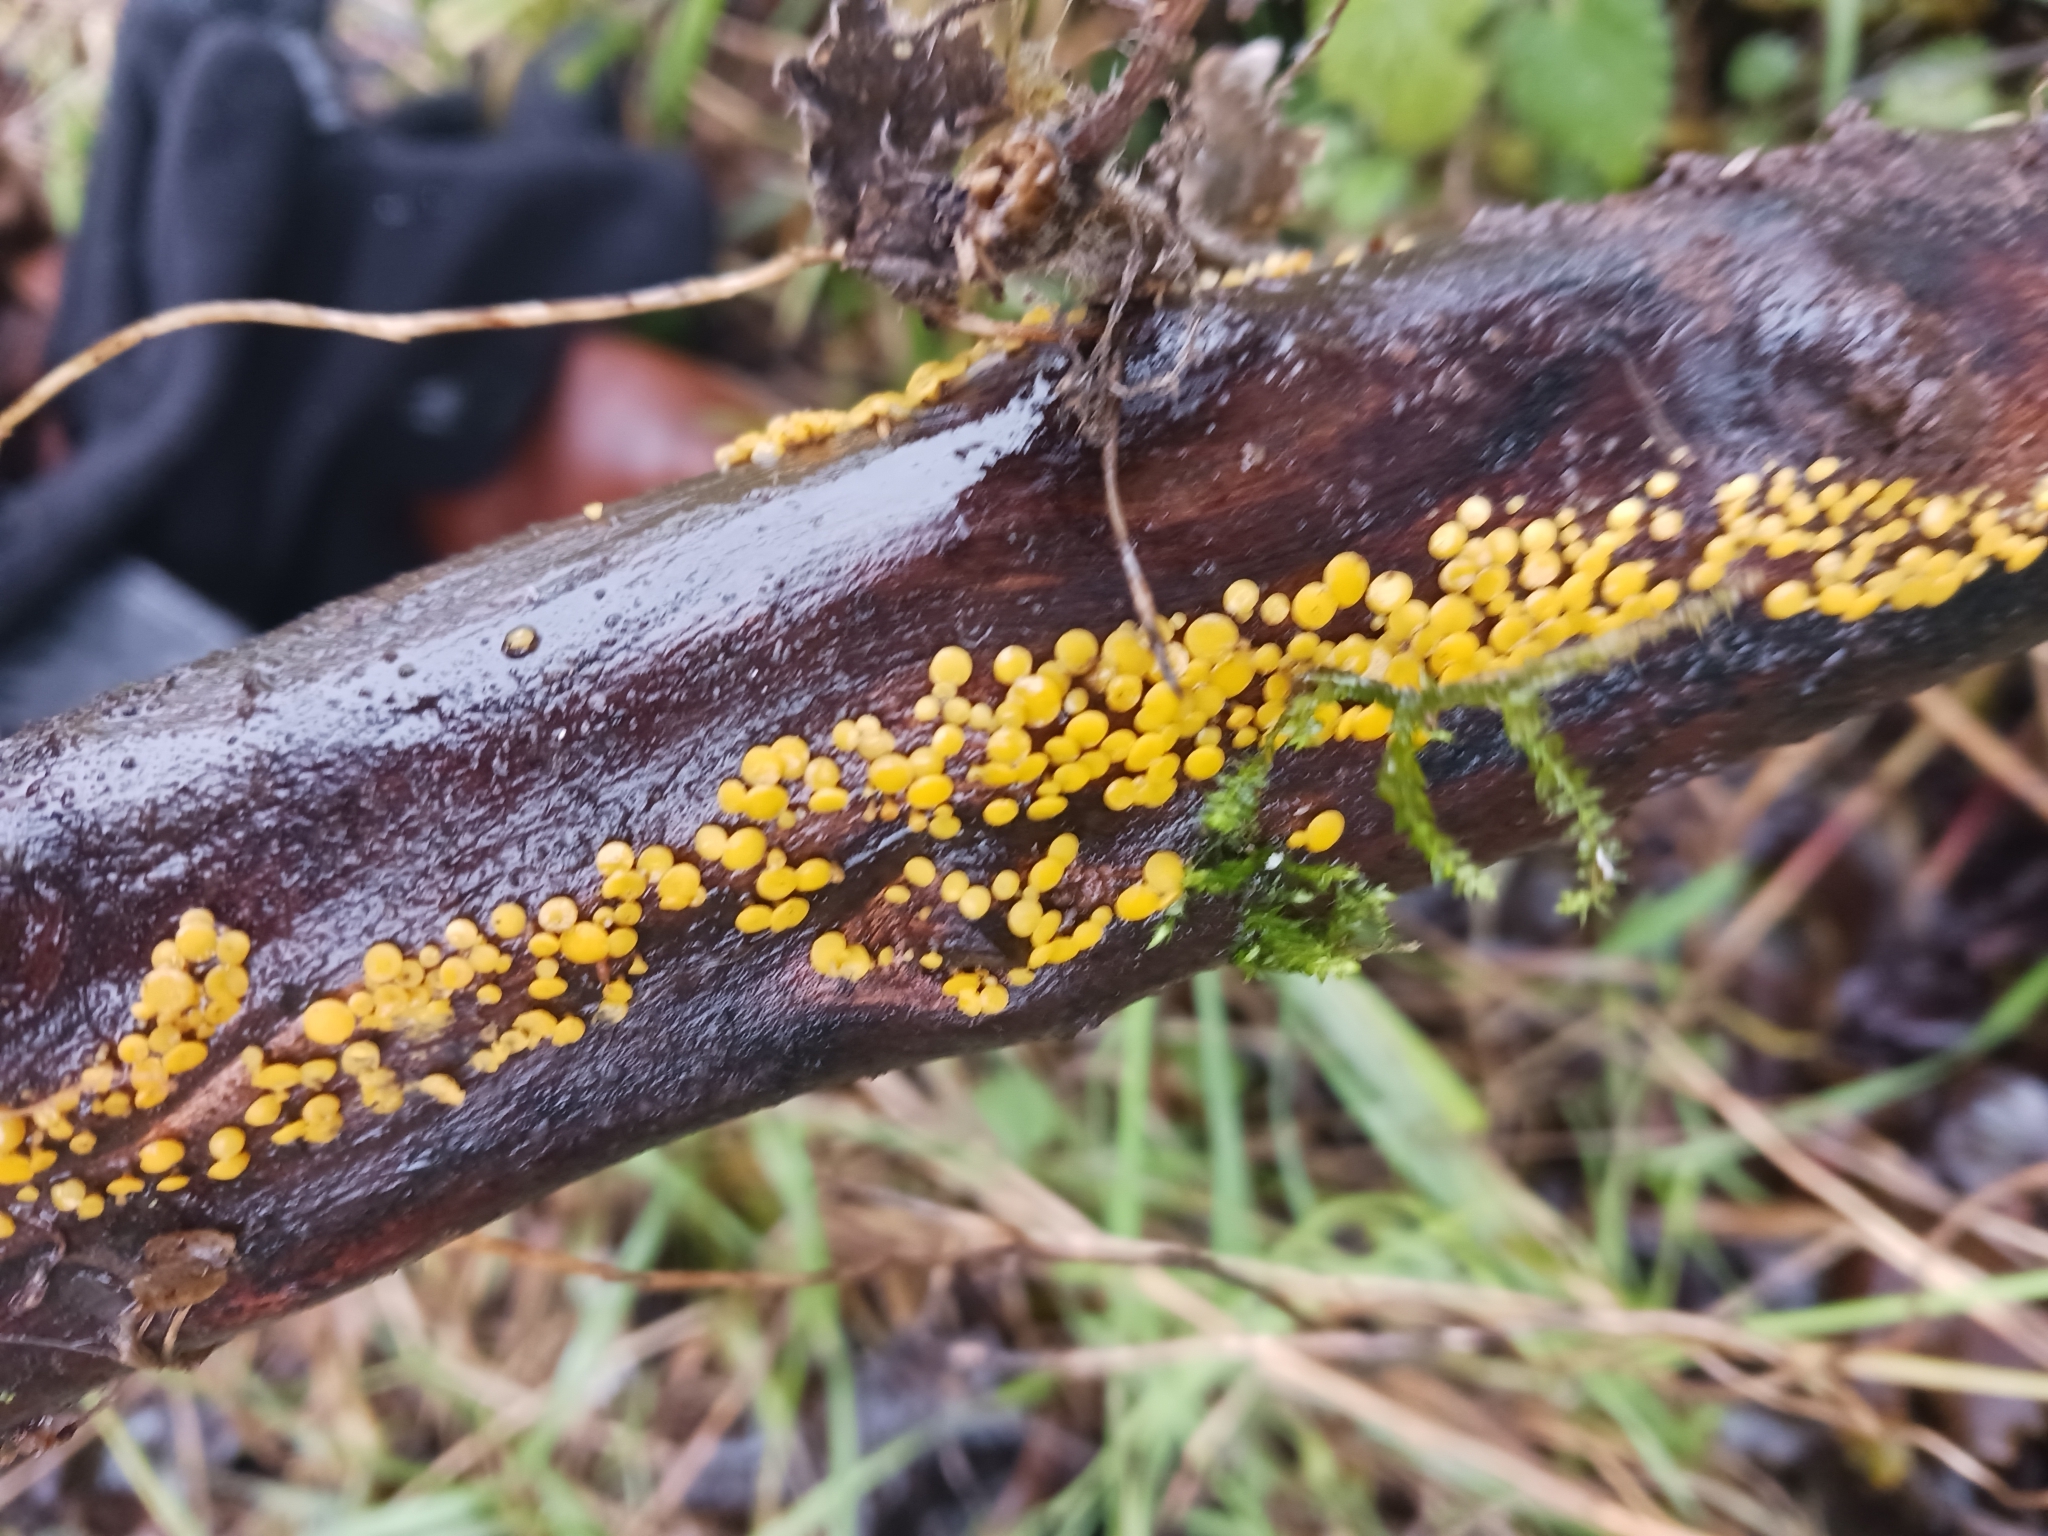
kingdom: Fungi
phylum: Ascomycota
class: Leotiomycetes
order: Helotiales
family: Pezizellaceae
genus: Calycina
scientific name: Calycina citrina
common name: Yellow fairy cups
